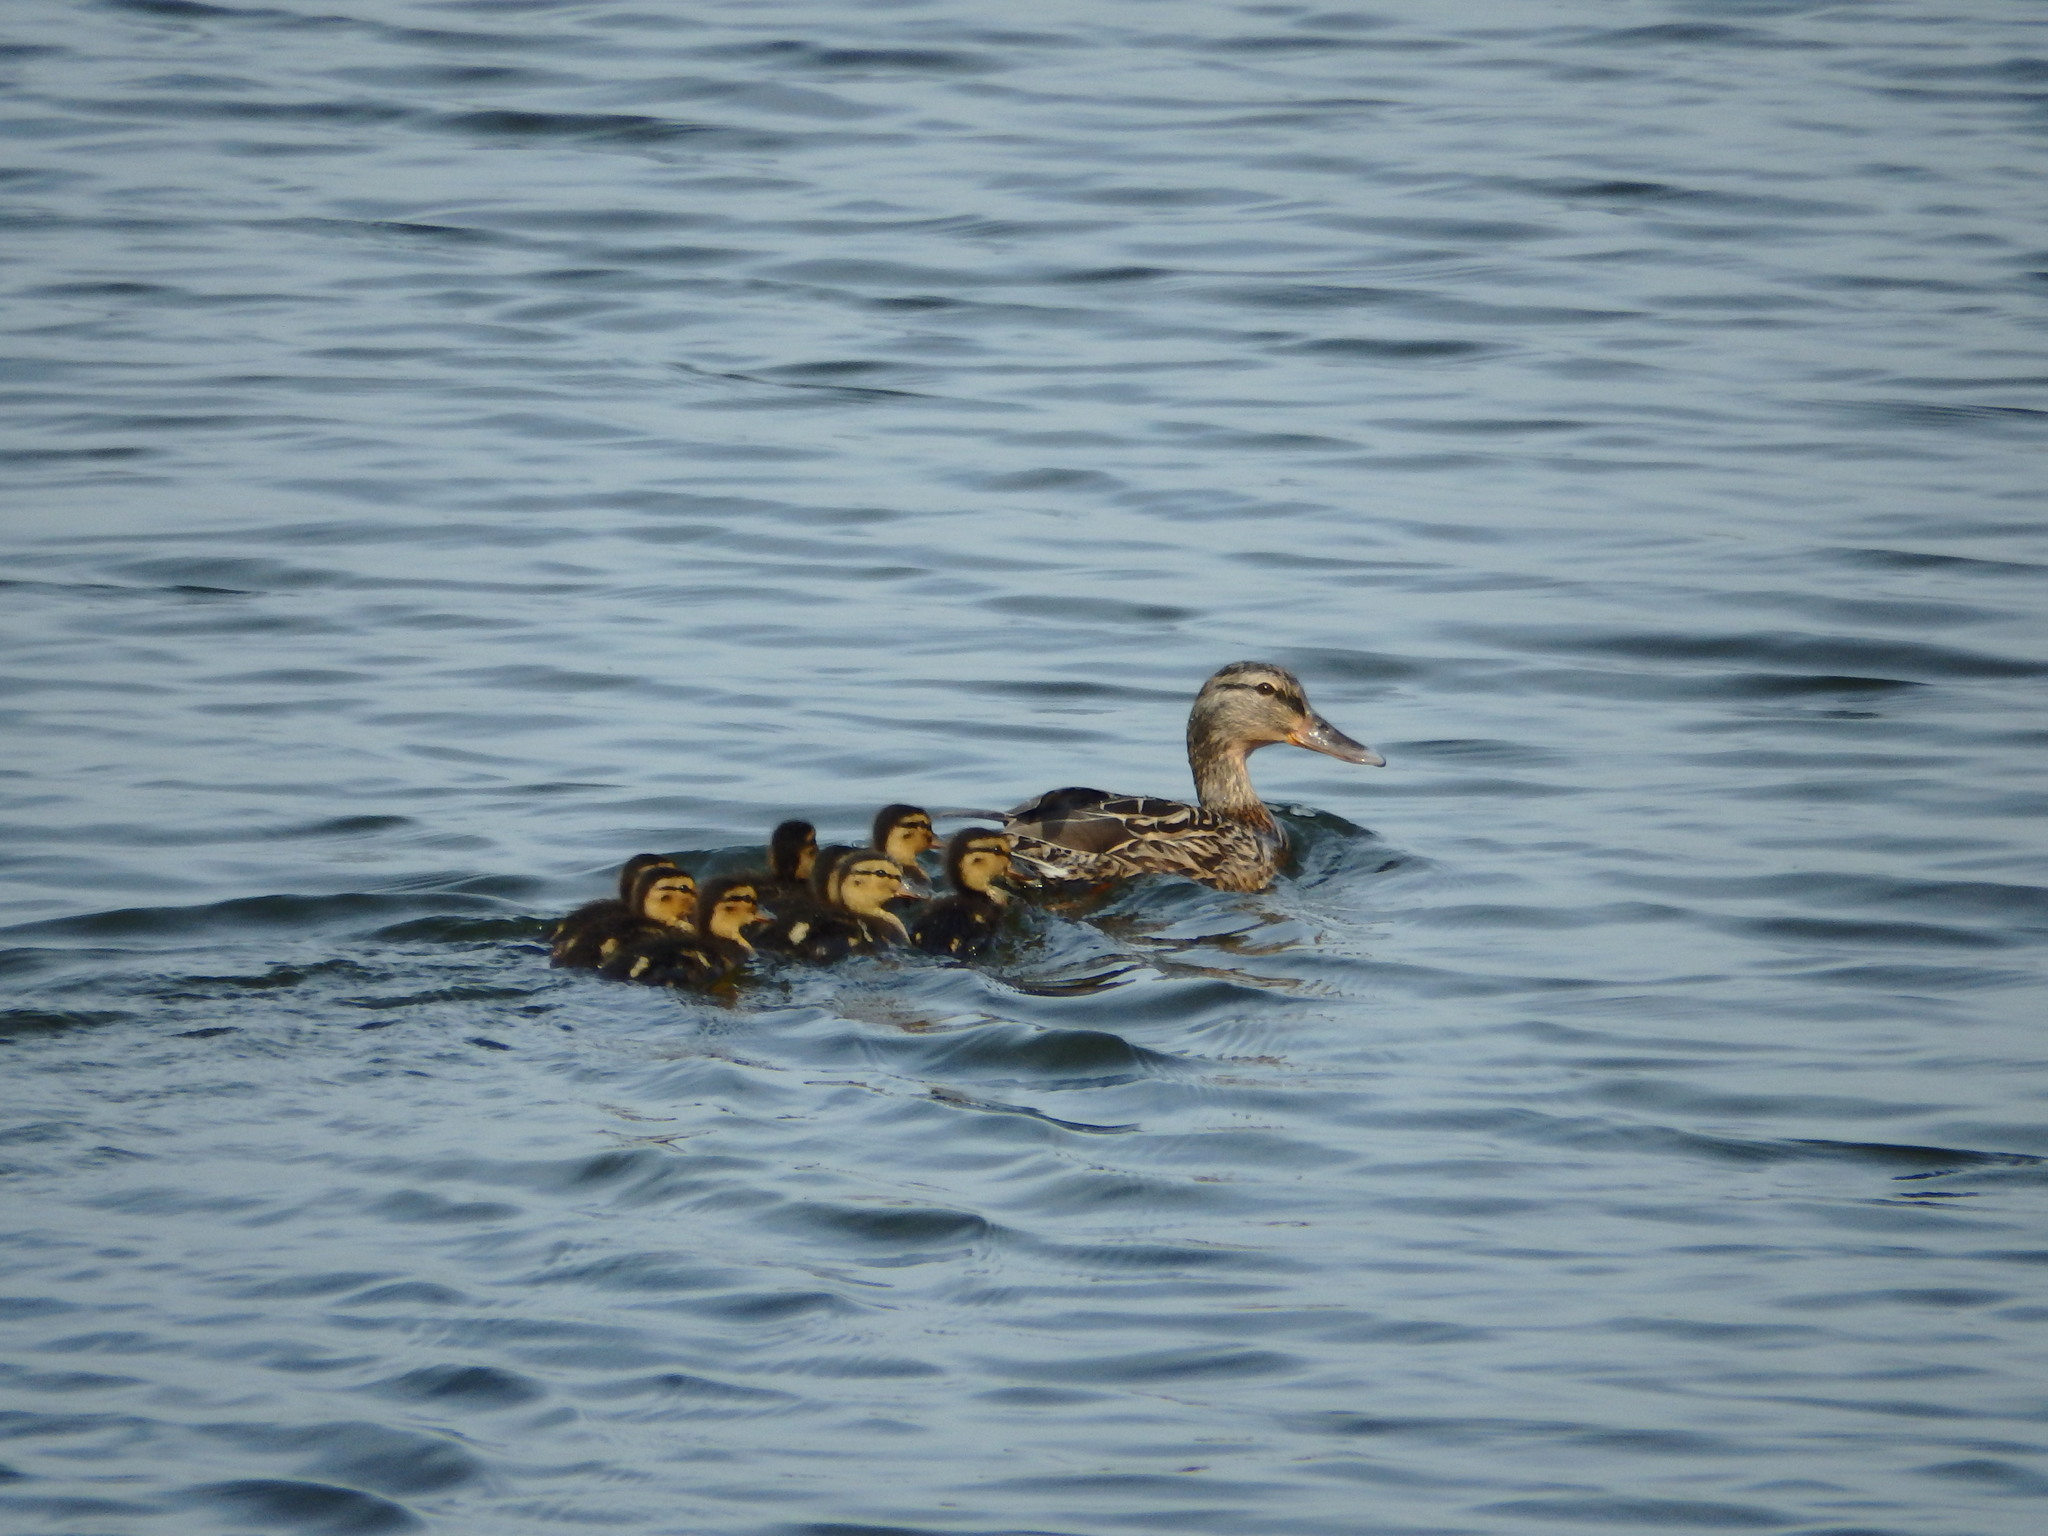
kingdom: Animalia
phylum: Chordata
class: Aves
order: Anseriformes
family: Anatidae
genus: Anas
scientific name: Anas platyrhynchos
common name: Mallard
